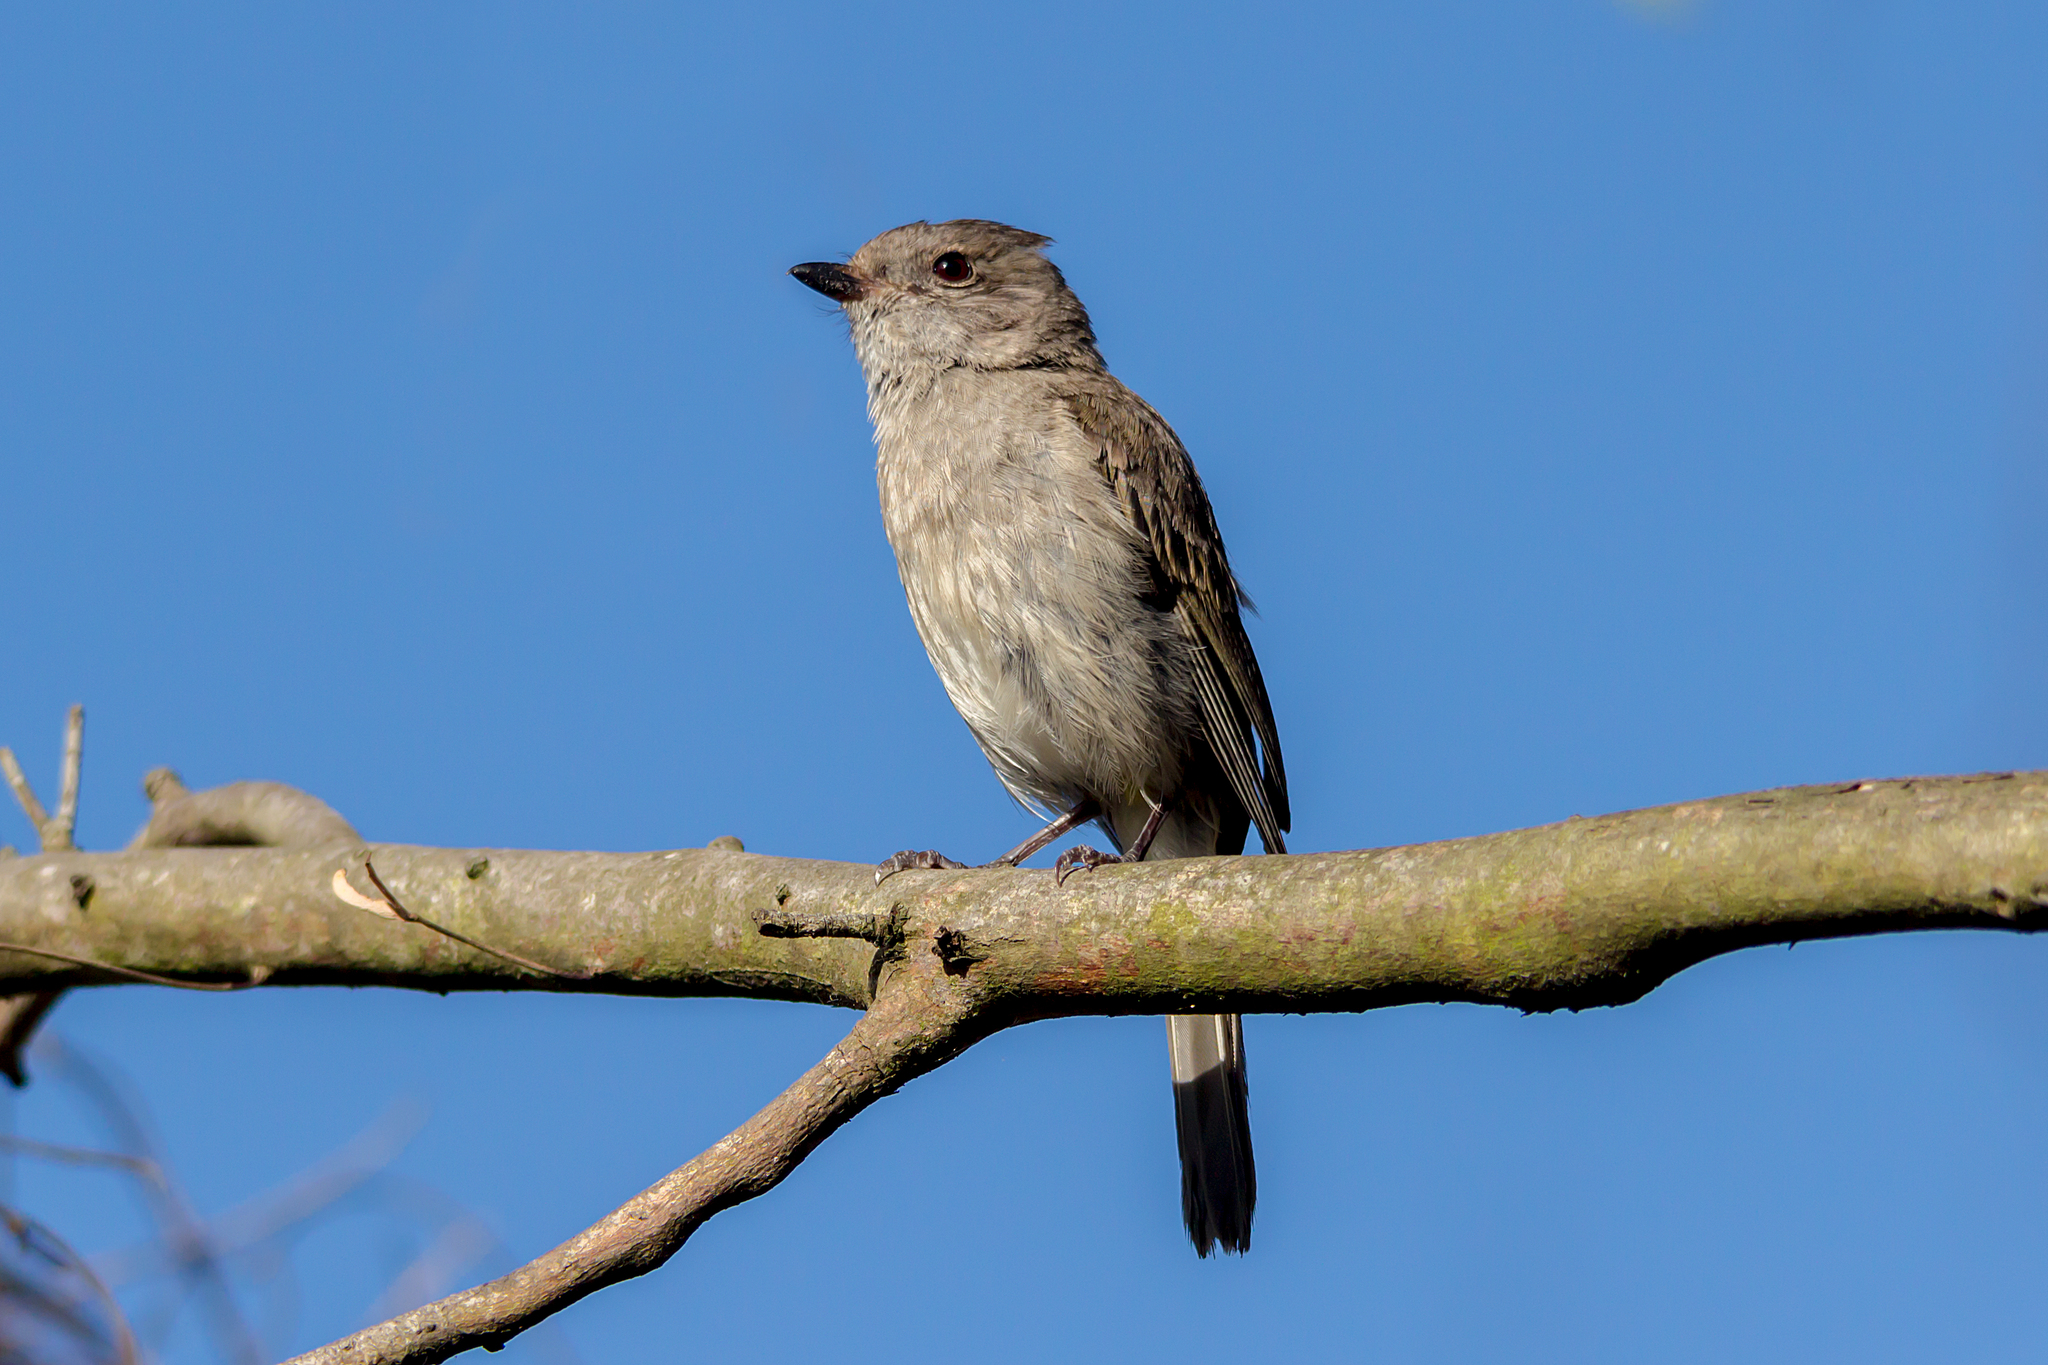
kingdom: Animalia
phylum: Chordata
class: Aves
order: Passeriformes
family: Pachycephalidae
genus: Pachycephala
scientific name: Pachycephala pectoralis
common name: Australian golden whistler
